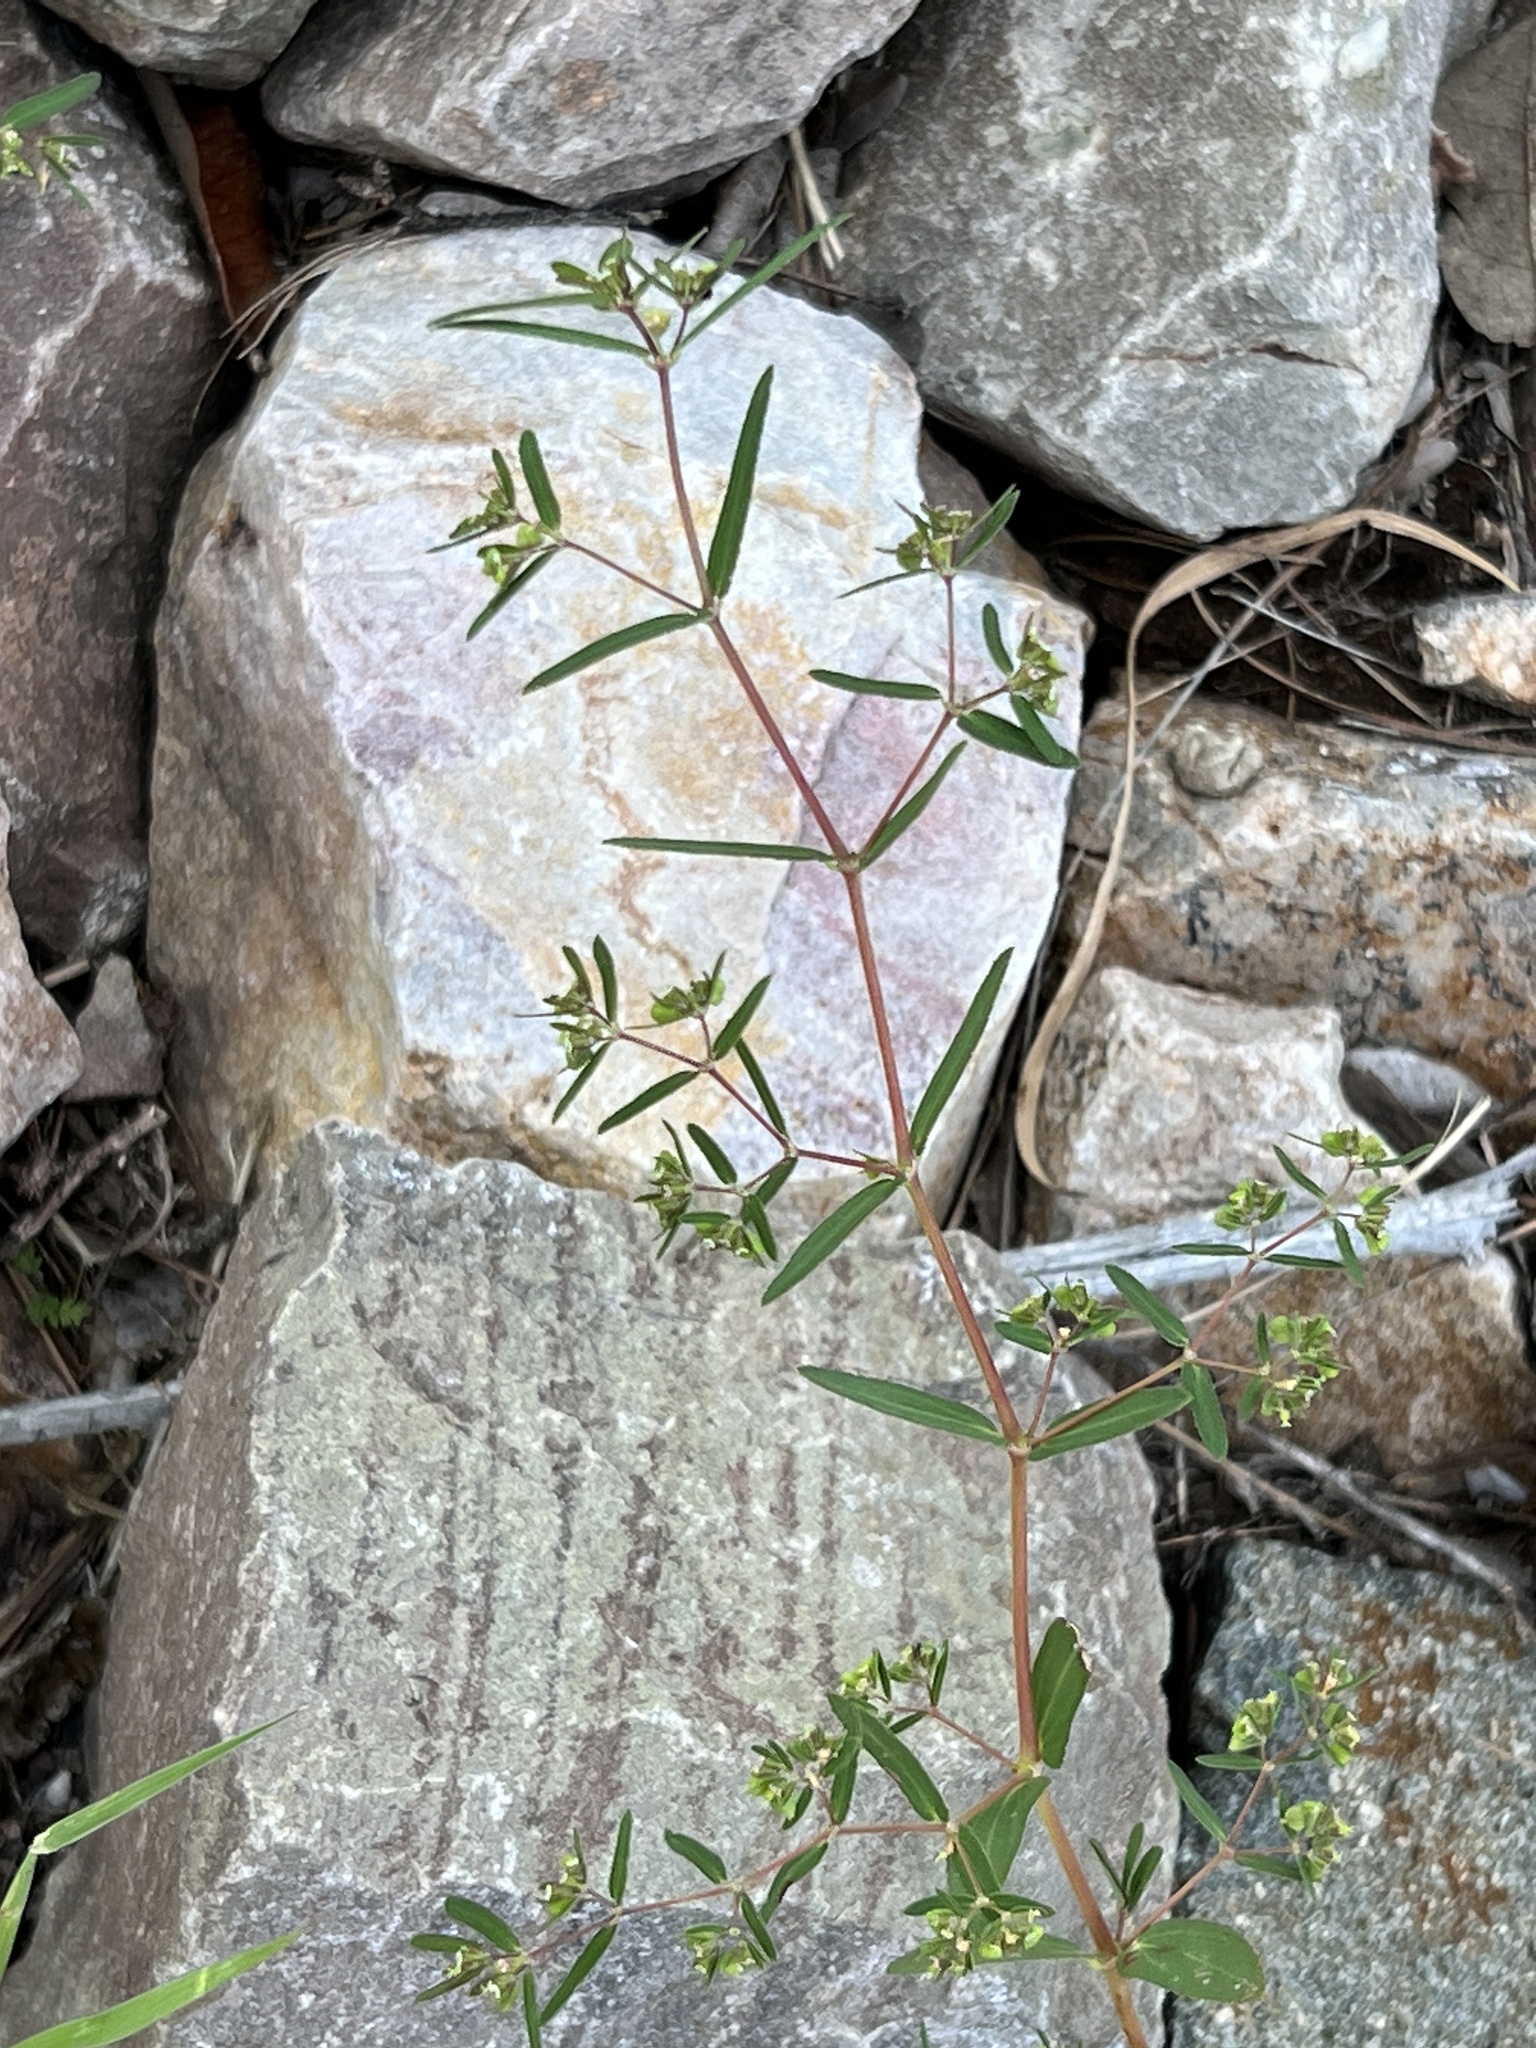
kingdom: Plantae
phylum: Tracheophyta
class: Magnoliopsida
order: Malpighiales
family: Euphorbiaceae
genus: Euphorbia
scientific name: Euphorbia hyssopifolia
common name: Hyssopleaf sandmat
